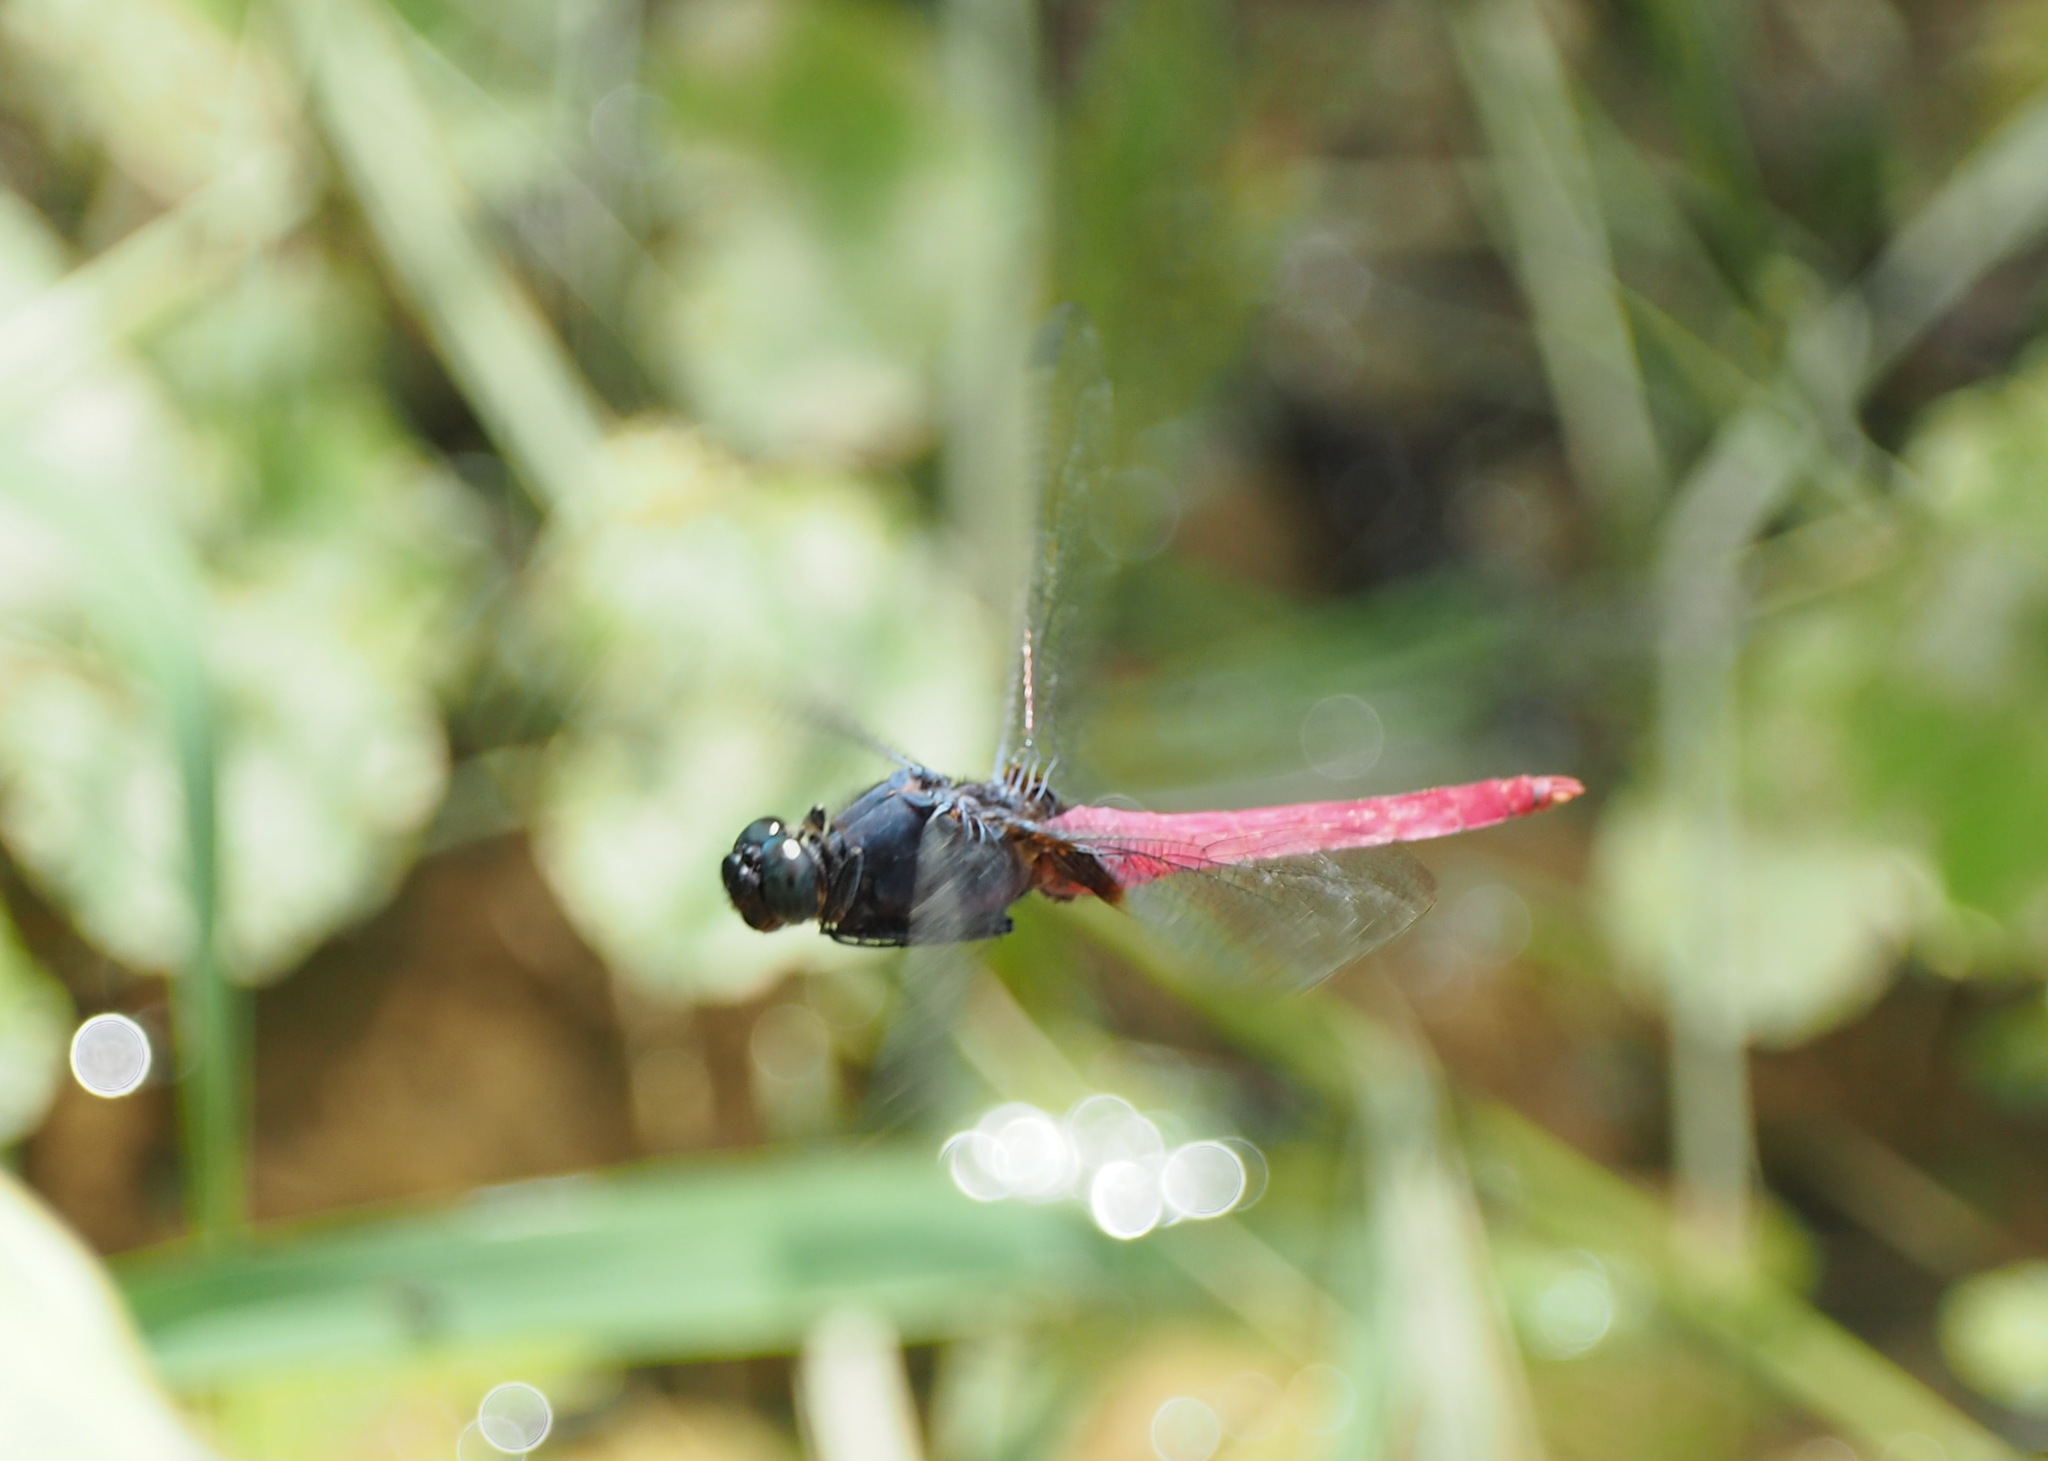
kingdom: Animalia
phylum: Arthropoda
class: Insecta
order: Odonata
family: Libellulidae
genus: Orthetrum
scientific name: Orthetrum pruinosum
